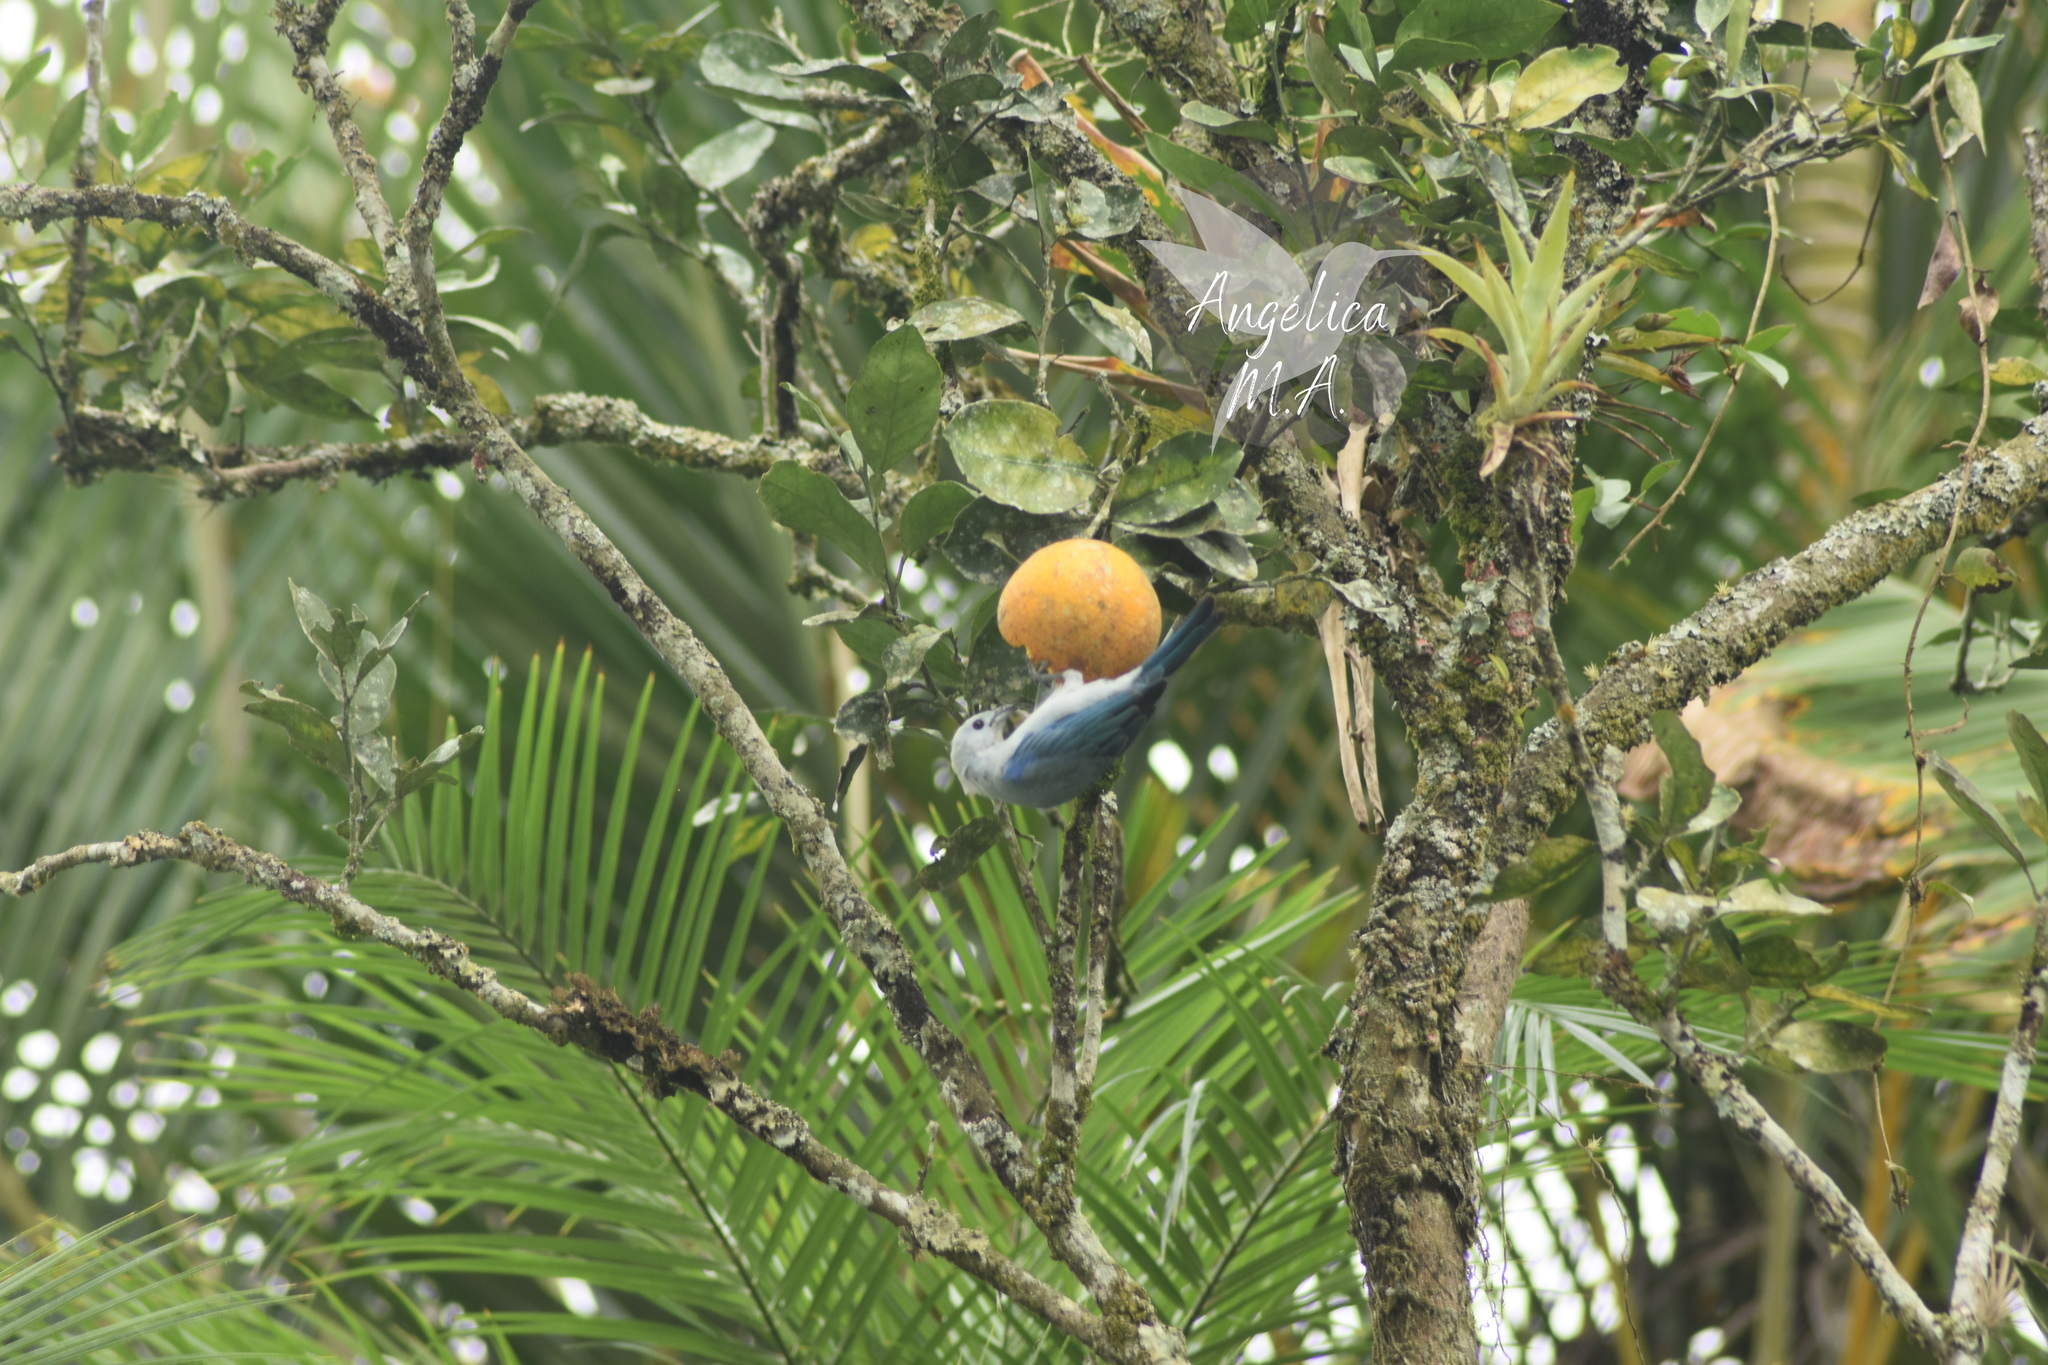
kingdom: Animalia
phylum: Chordata
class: Aves
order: Passeriformes
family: Thraupidae
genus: Thraupis
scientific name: Thraupis episcopus
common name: Blue-grey tanager
